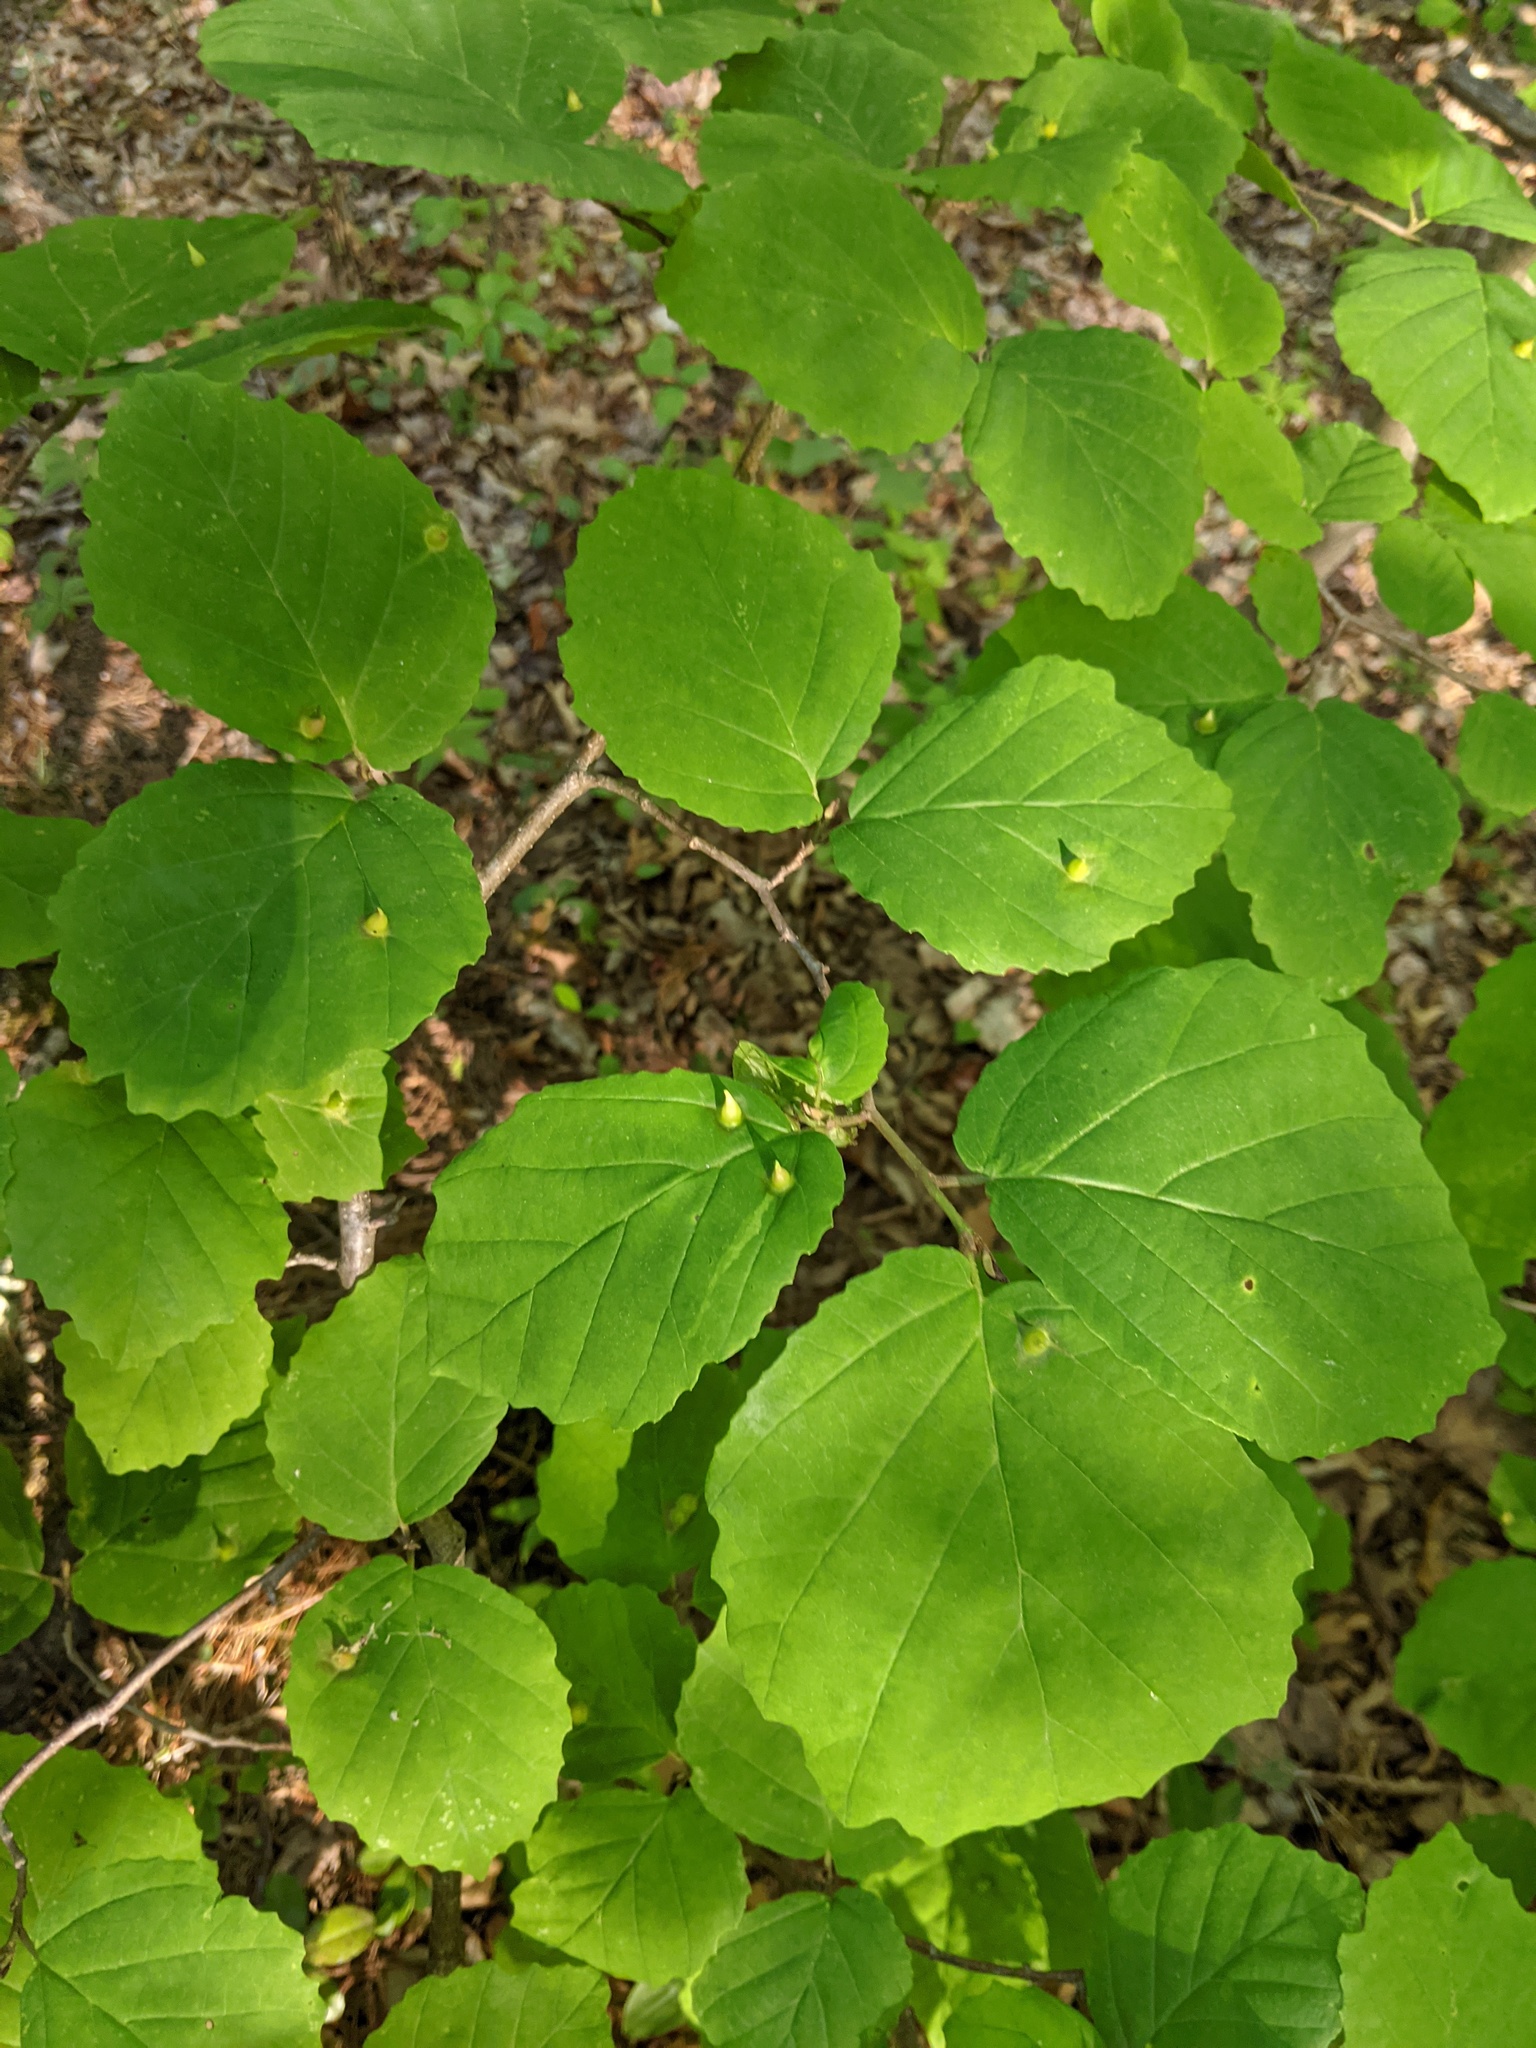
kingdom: Animalia
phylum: Arthropoda
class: Insecta
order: Hemiptera
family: Aphididae
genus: Hormaphis
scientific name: Hormaphis hamamelidis
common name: Witch-hazel cone gall aphid
